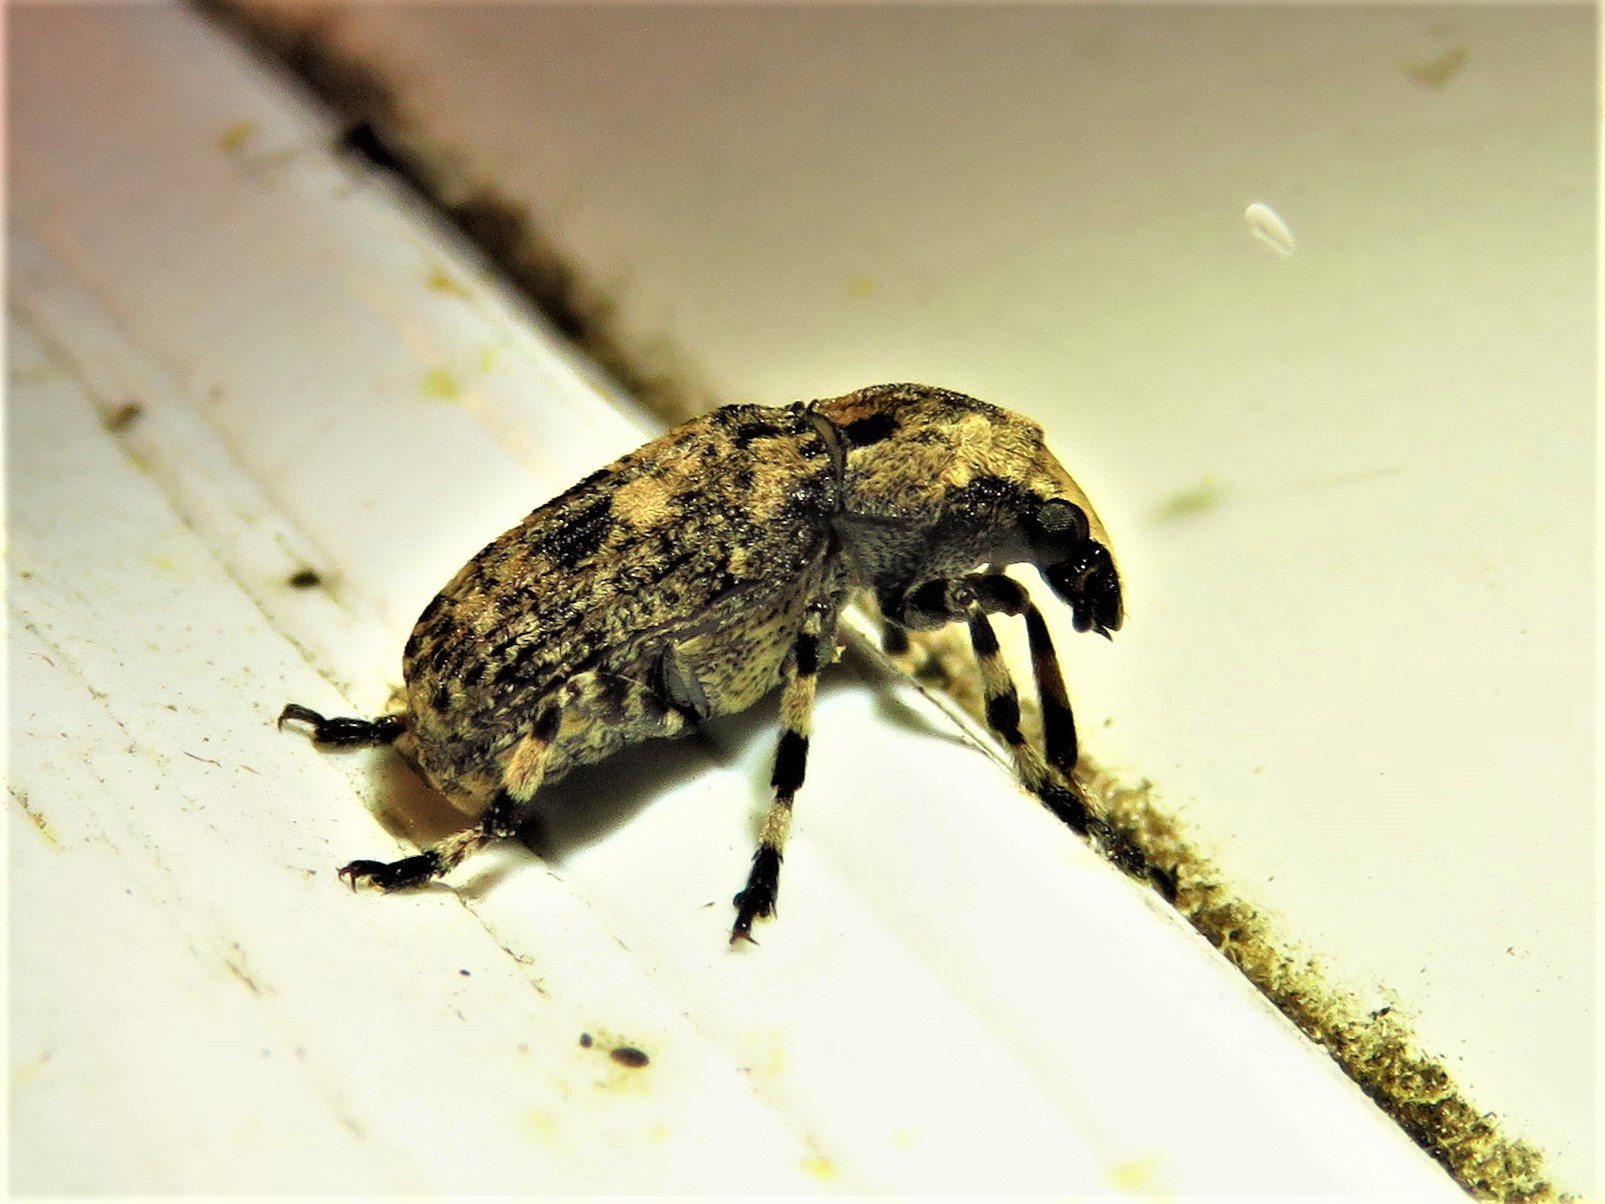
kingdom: Animalia
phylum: Arthropoda
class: Insecta
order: Coleoptera
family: Anthribidae
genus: Euparius
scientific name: Euparius marmoreus
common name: Marbled fungus weevil
